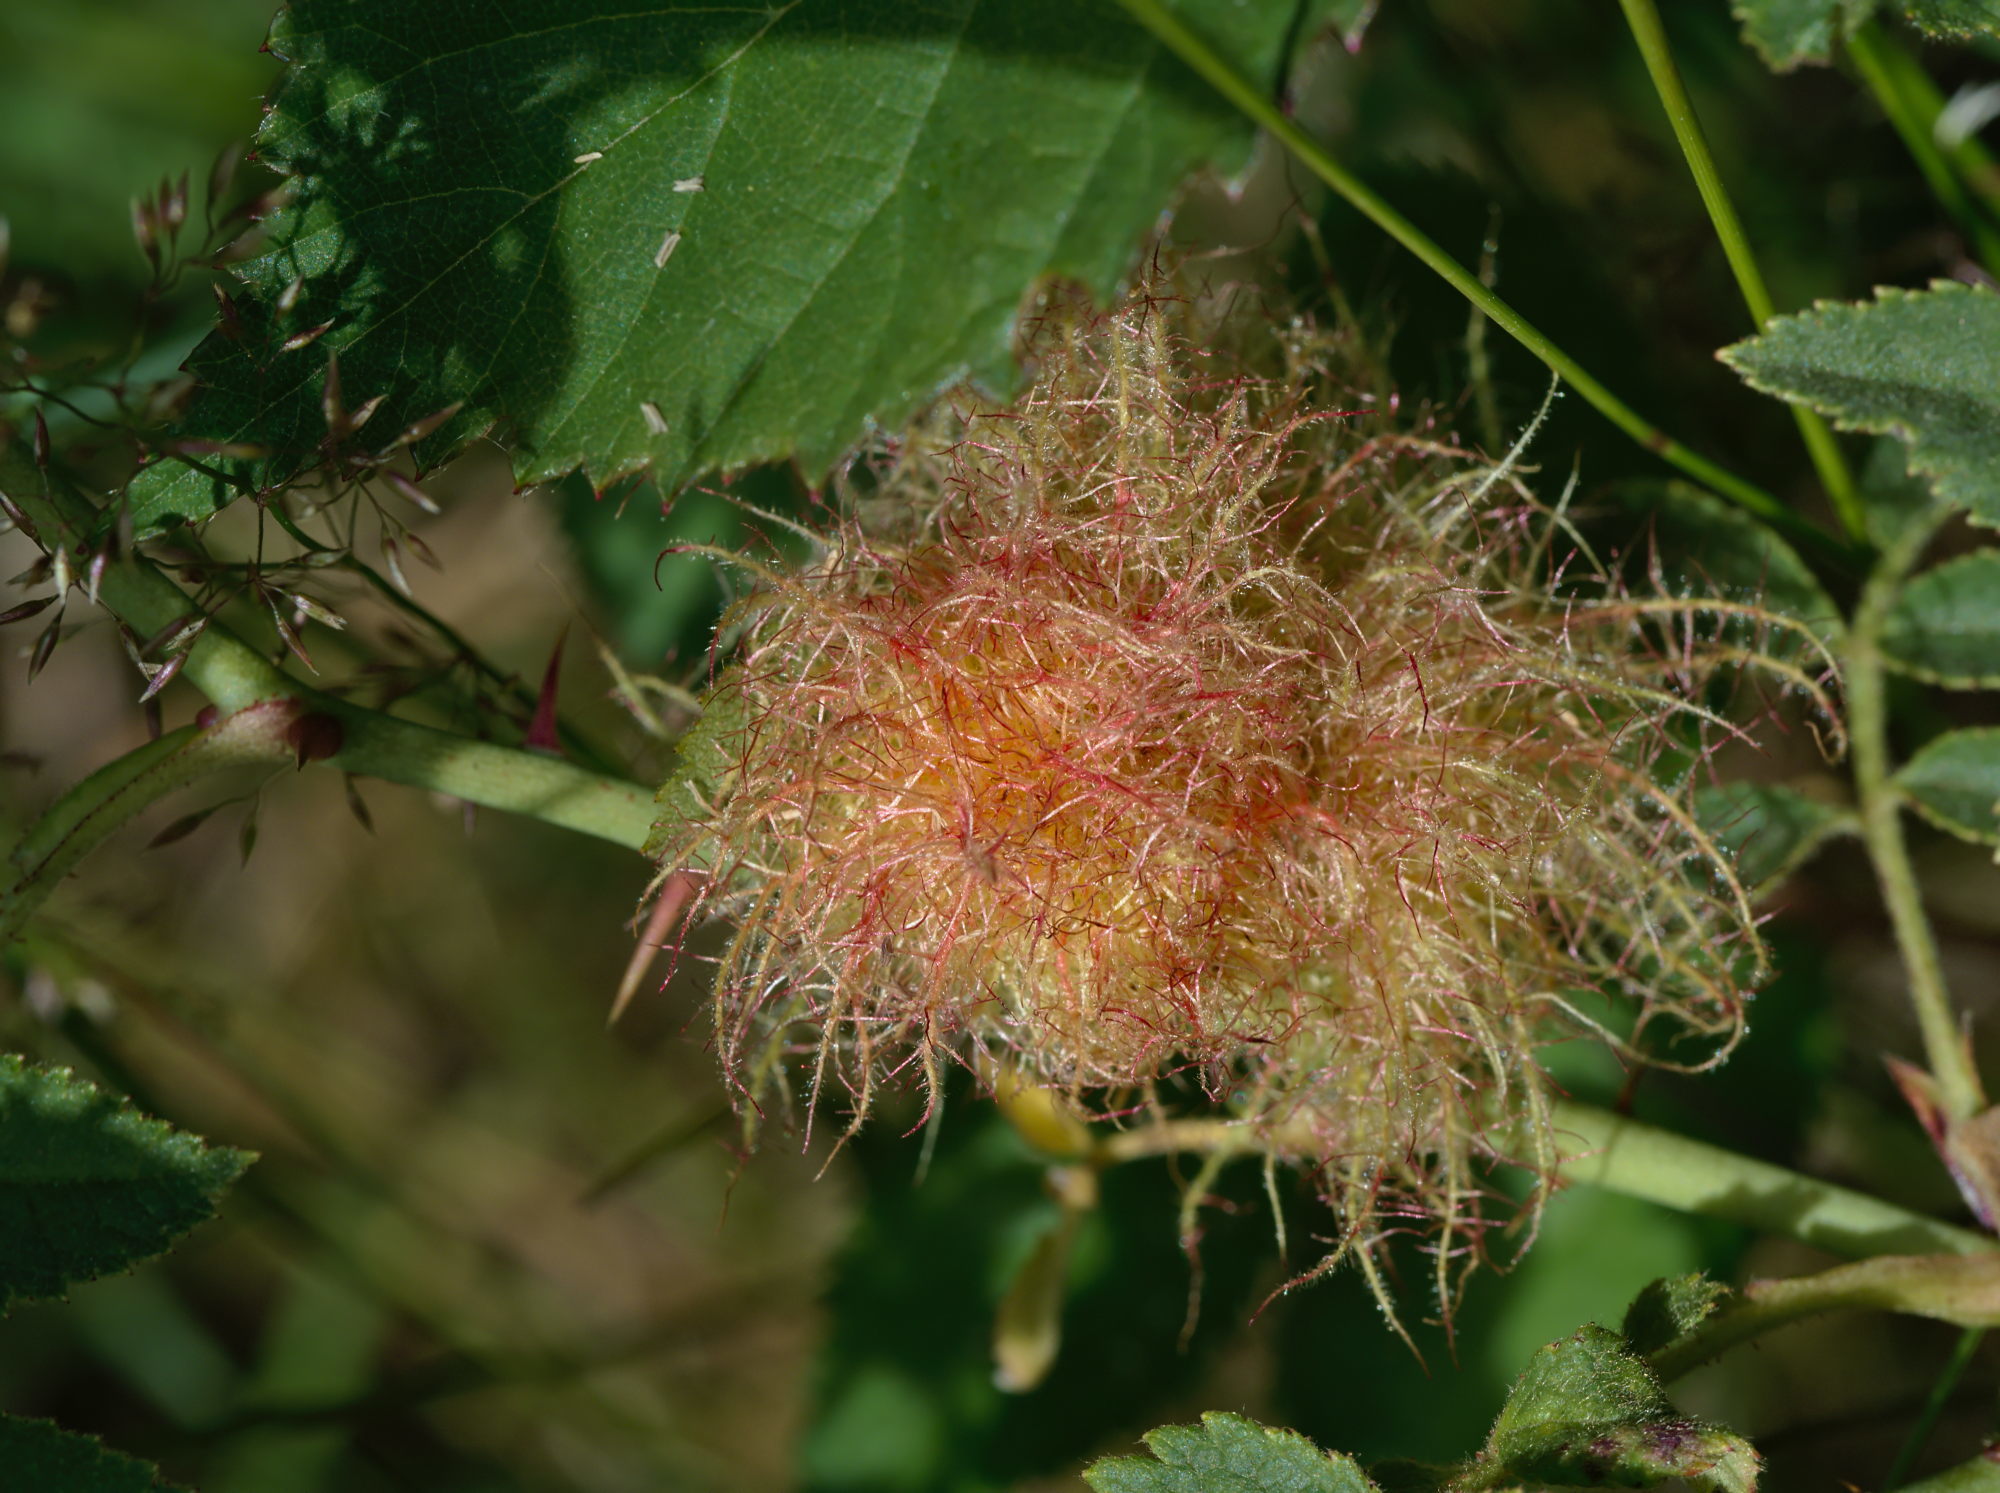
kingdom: Animalia
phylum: Arthropoda
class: Insecta
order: Hymenoptera
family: Cynipidae
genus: Diplolepis
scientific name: Diplolepis rosae
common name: Bedeguar gall
